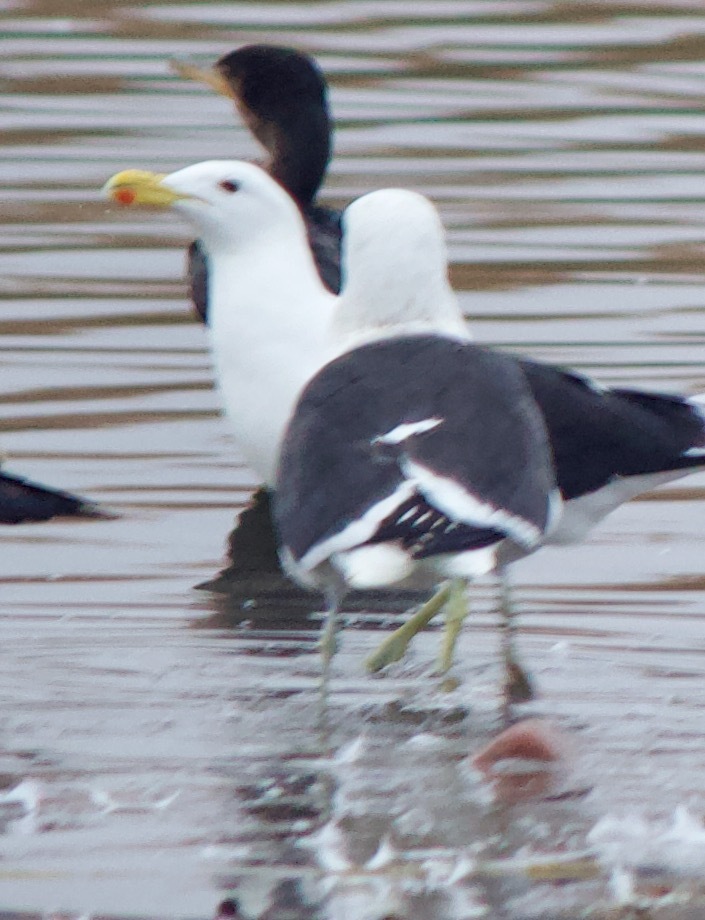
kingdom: Animalia
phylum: Chordata
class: Aves
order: Charadriiformes
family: Laridae
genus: Larus
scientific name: Larus dominicanus
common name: Kelp gull
